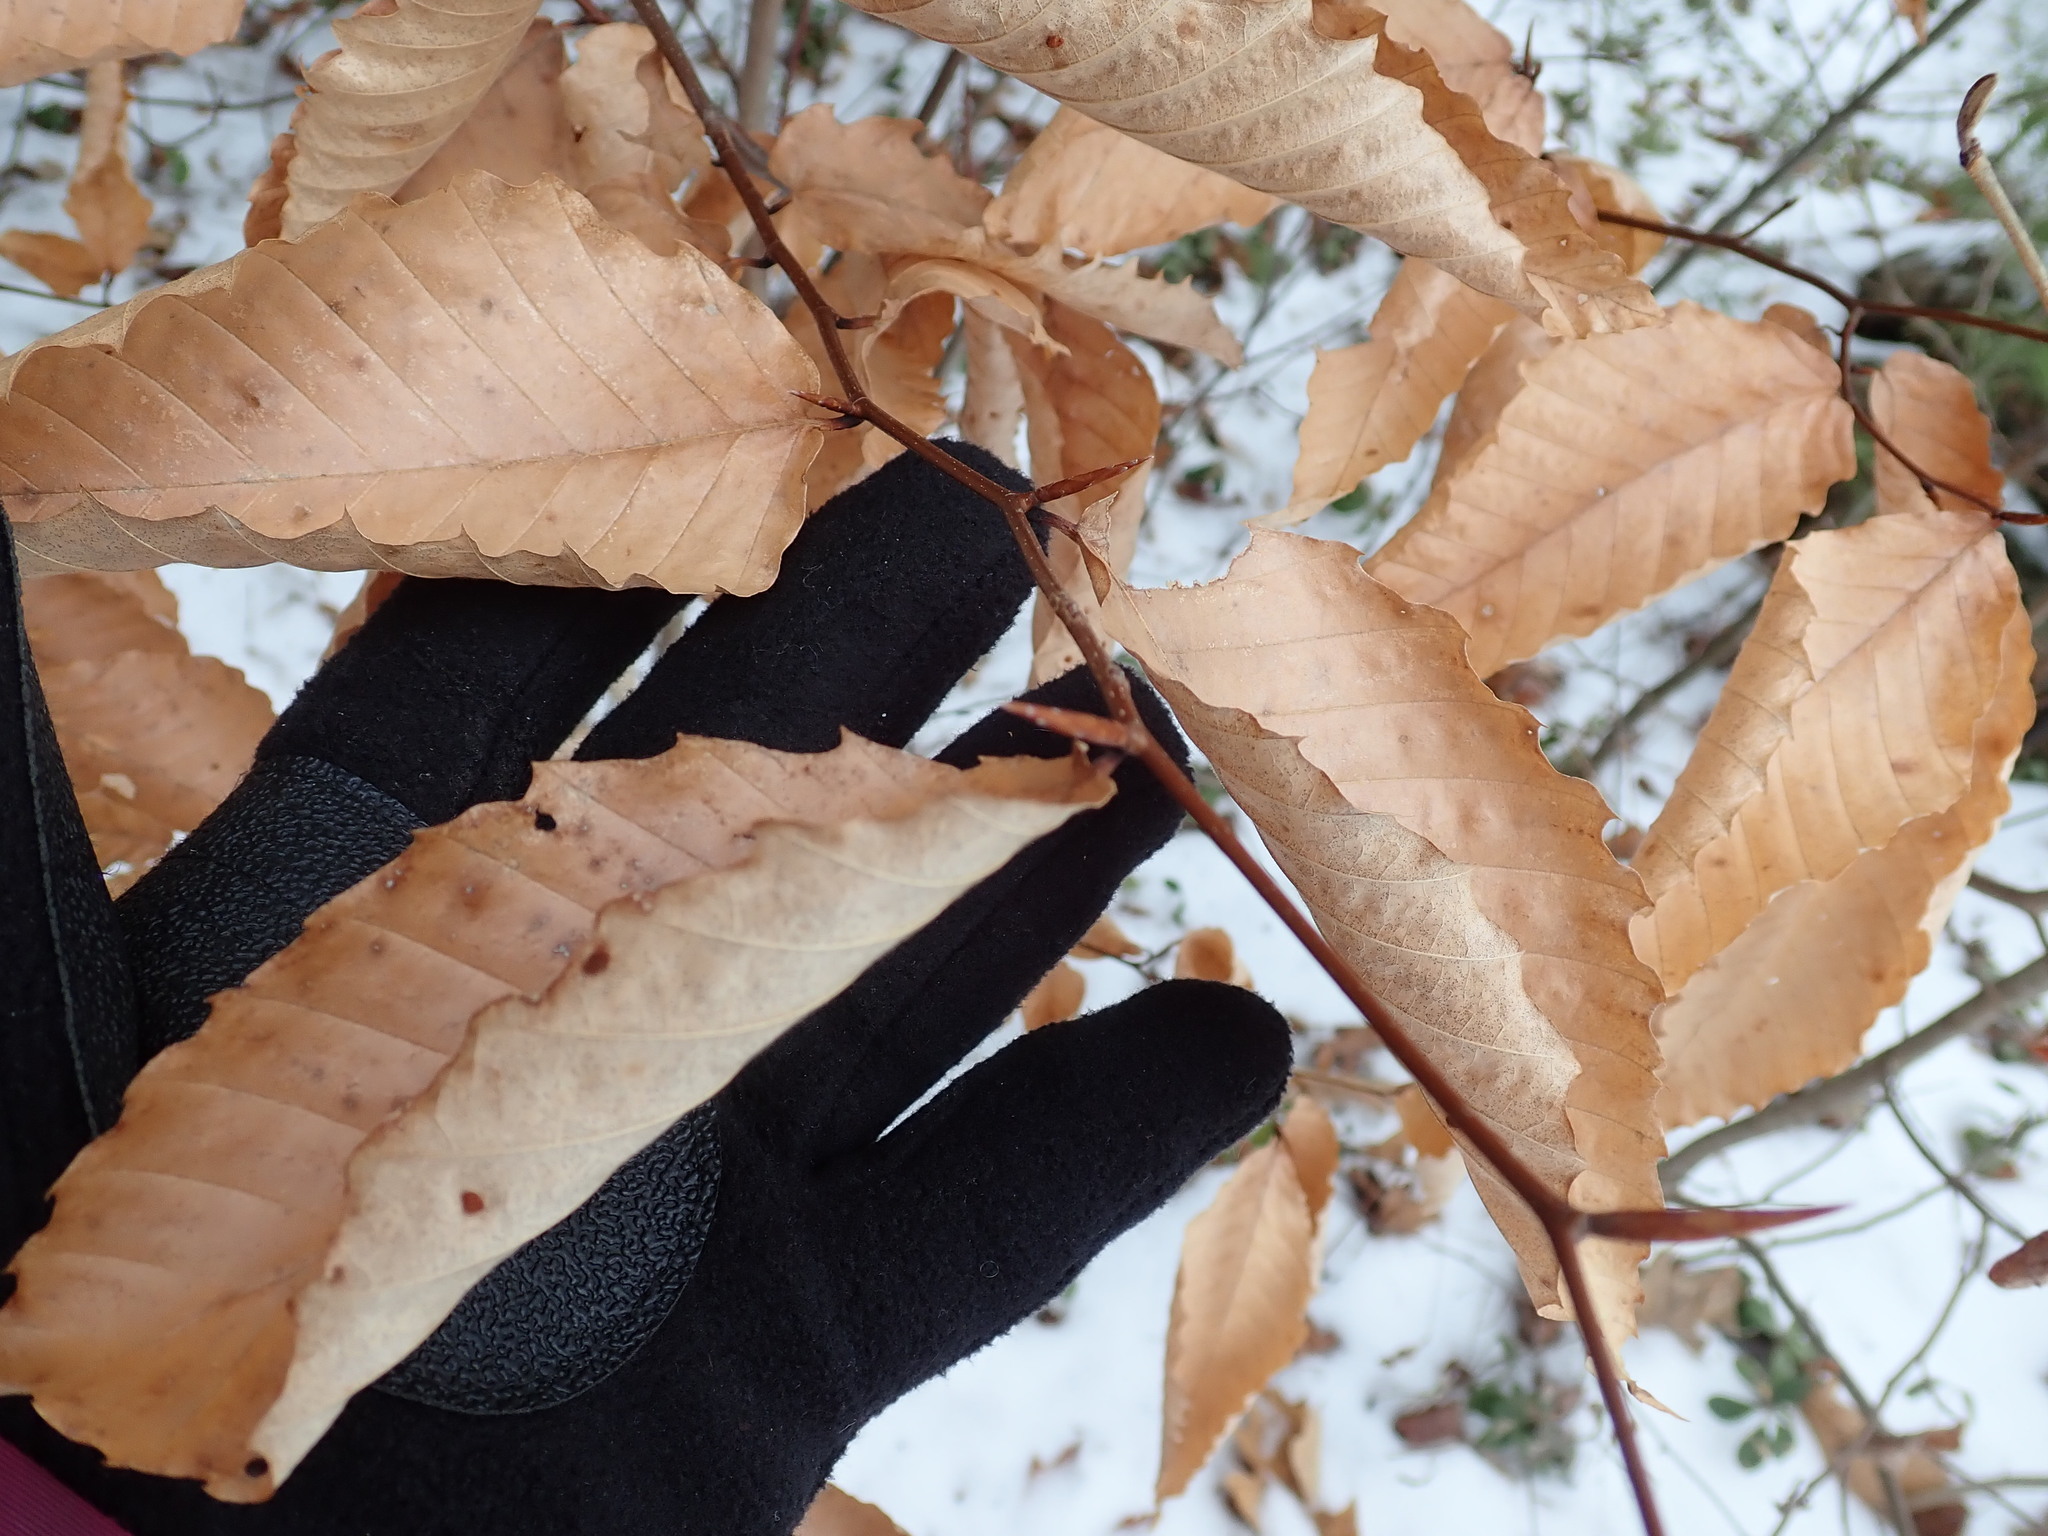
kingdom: Plantae
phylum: Tracheophyta
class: Magnoliopsida
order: Fagales
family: Fagaceae
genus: Fagus
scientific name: Fagus grandifolia
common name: American beech
